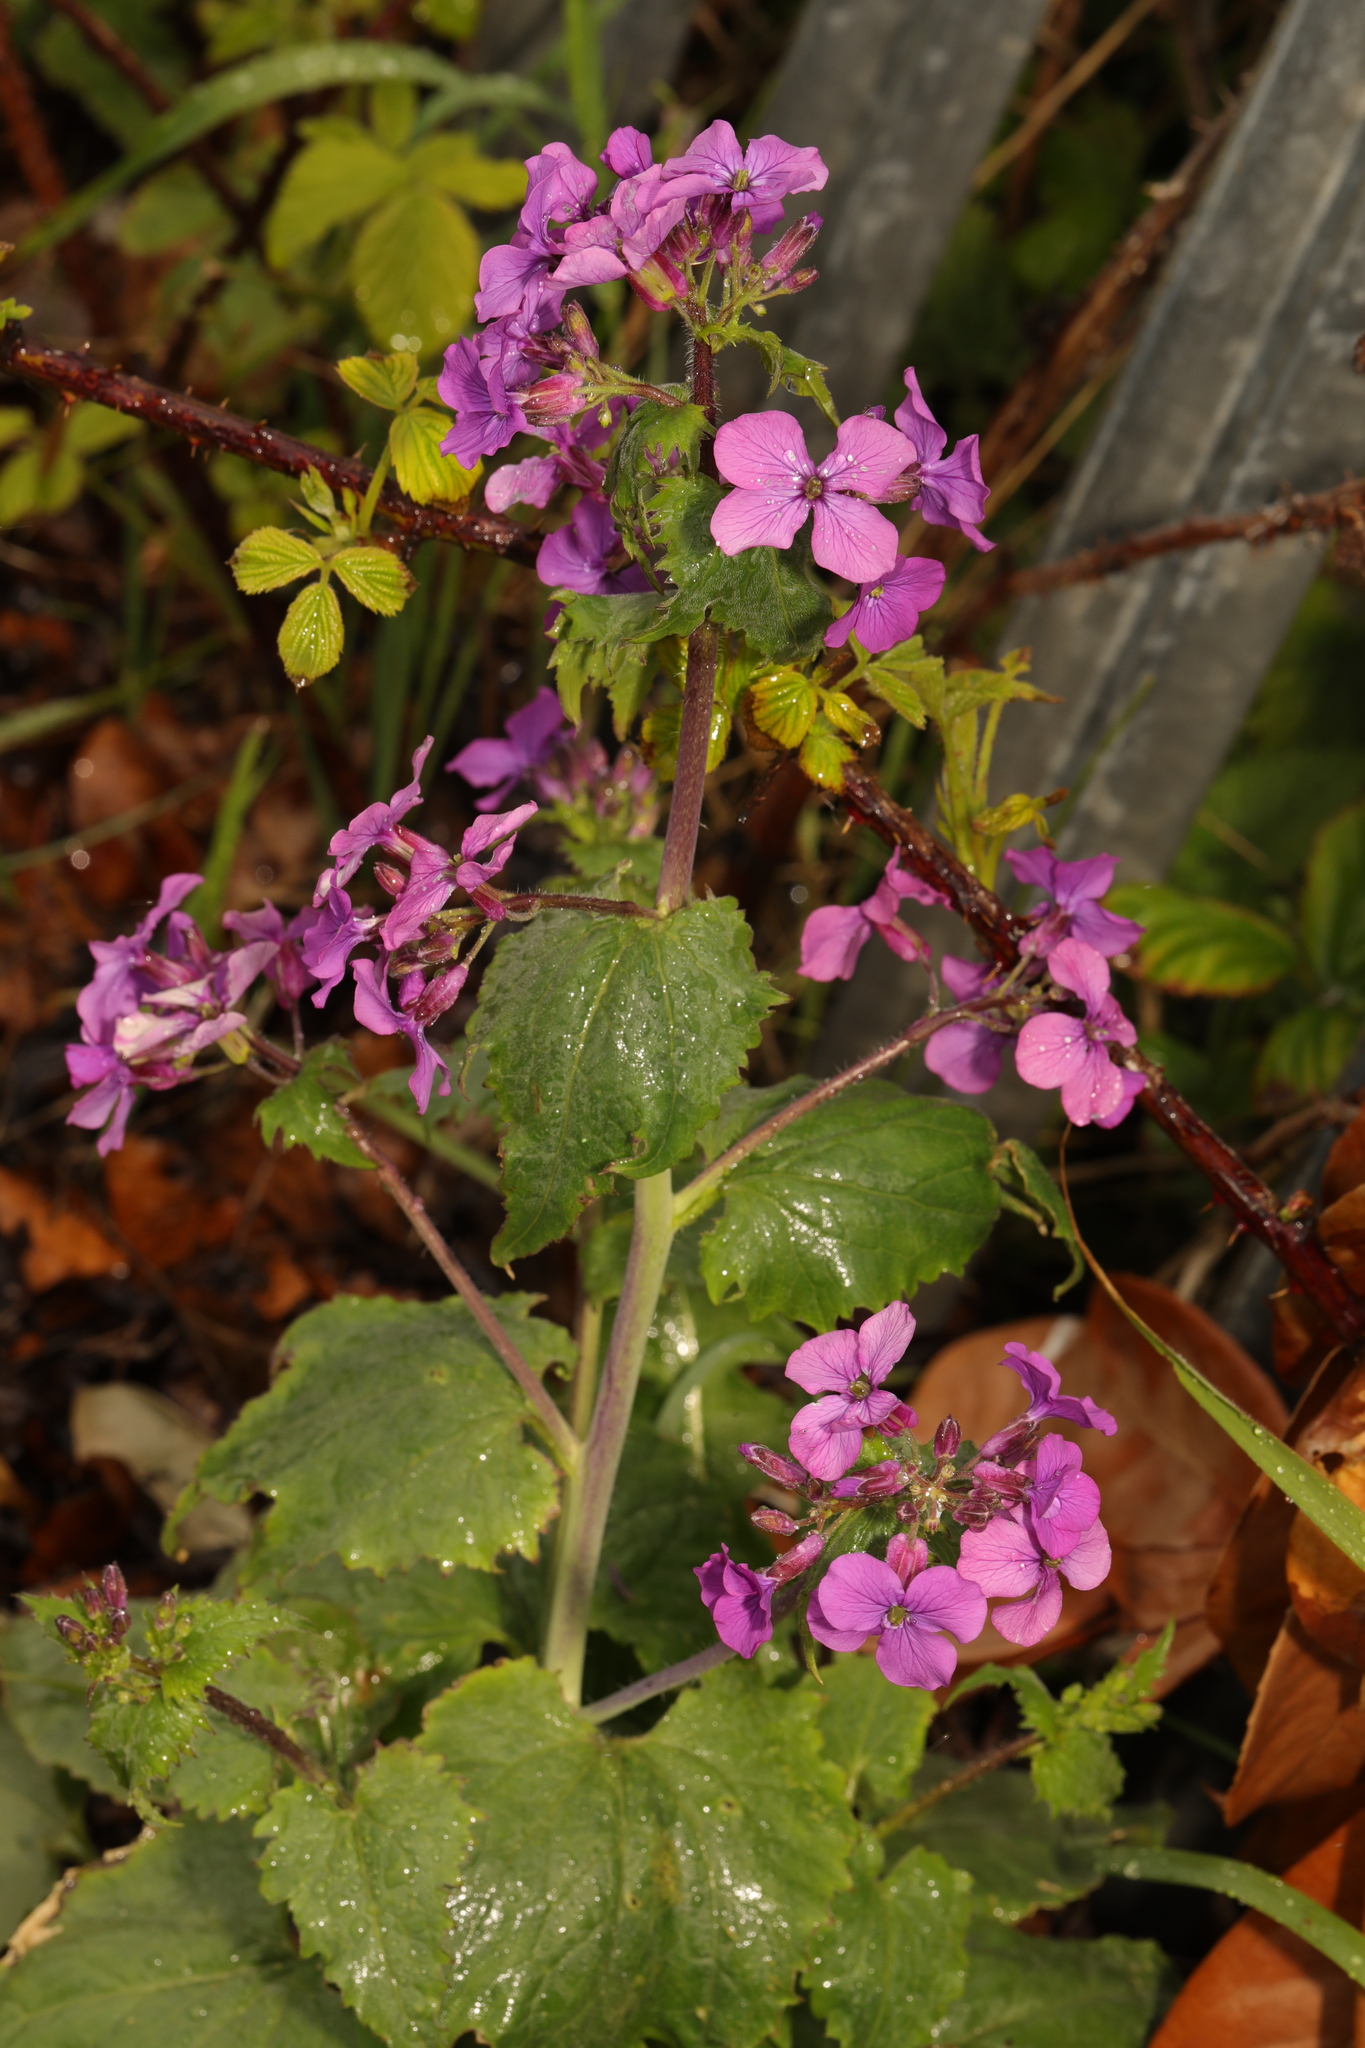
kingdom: Plantae
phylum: Tracheophyta
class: Magnoliopsida
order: Brassicales
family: Brassicaceae
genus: Lunaria
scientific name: Lunaria annua
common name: Honesty
